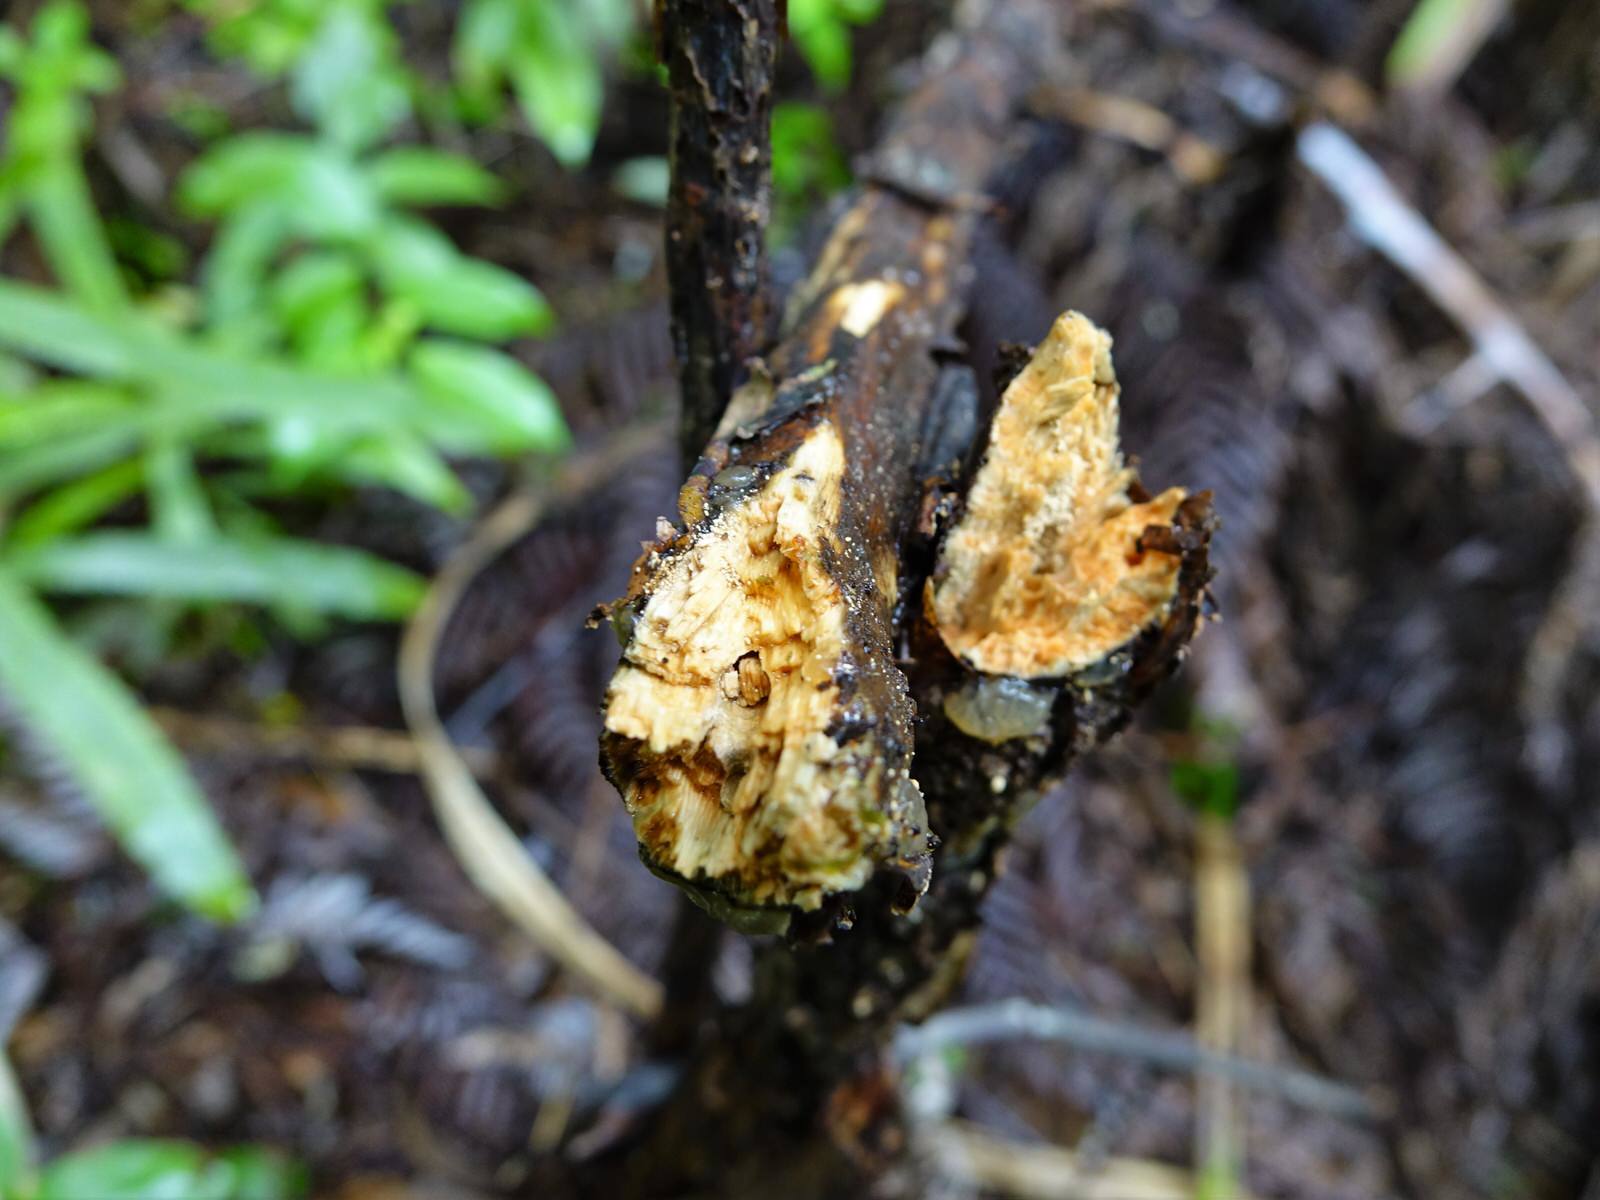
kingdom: Plantae
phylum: Tracheophyta
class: Magnoliopsida
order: Gentianales
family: Rubiaceae
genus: Coprosma
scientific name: Coprosma autumnalis
